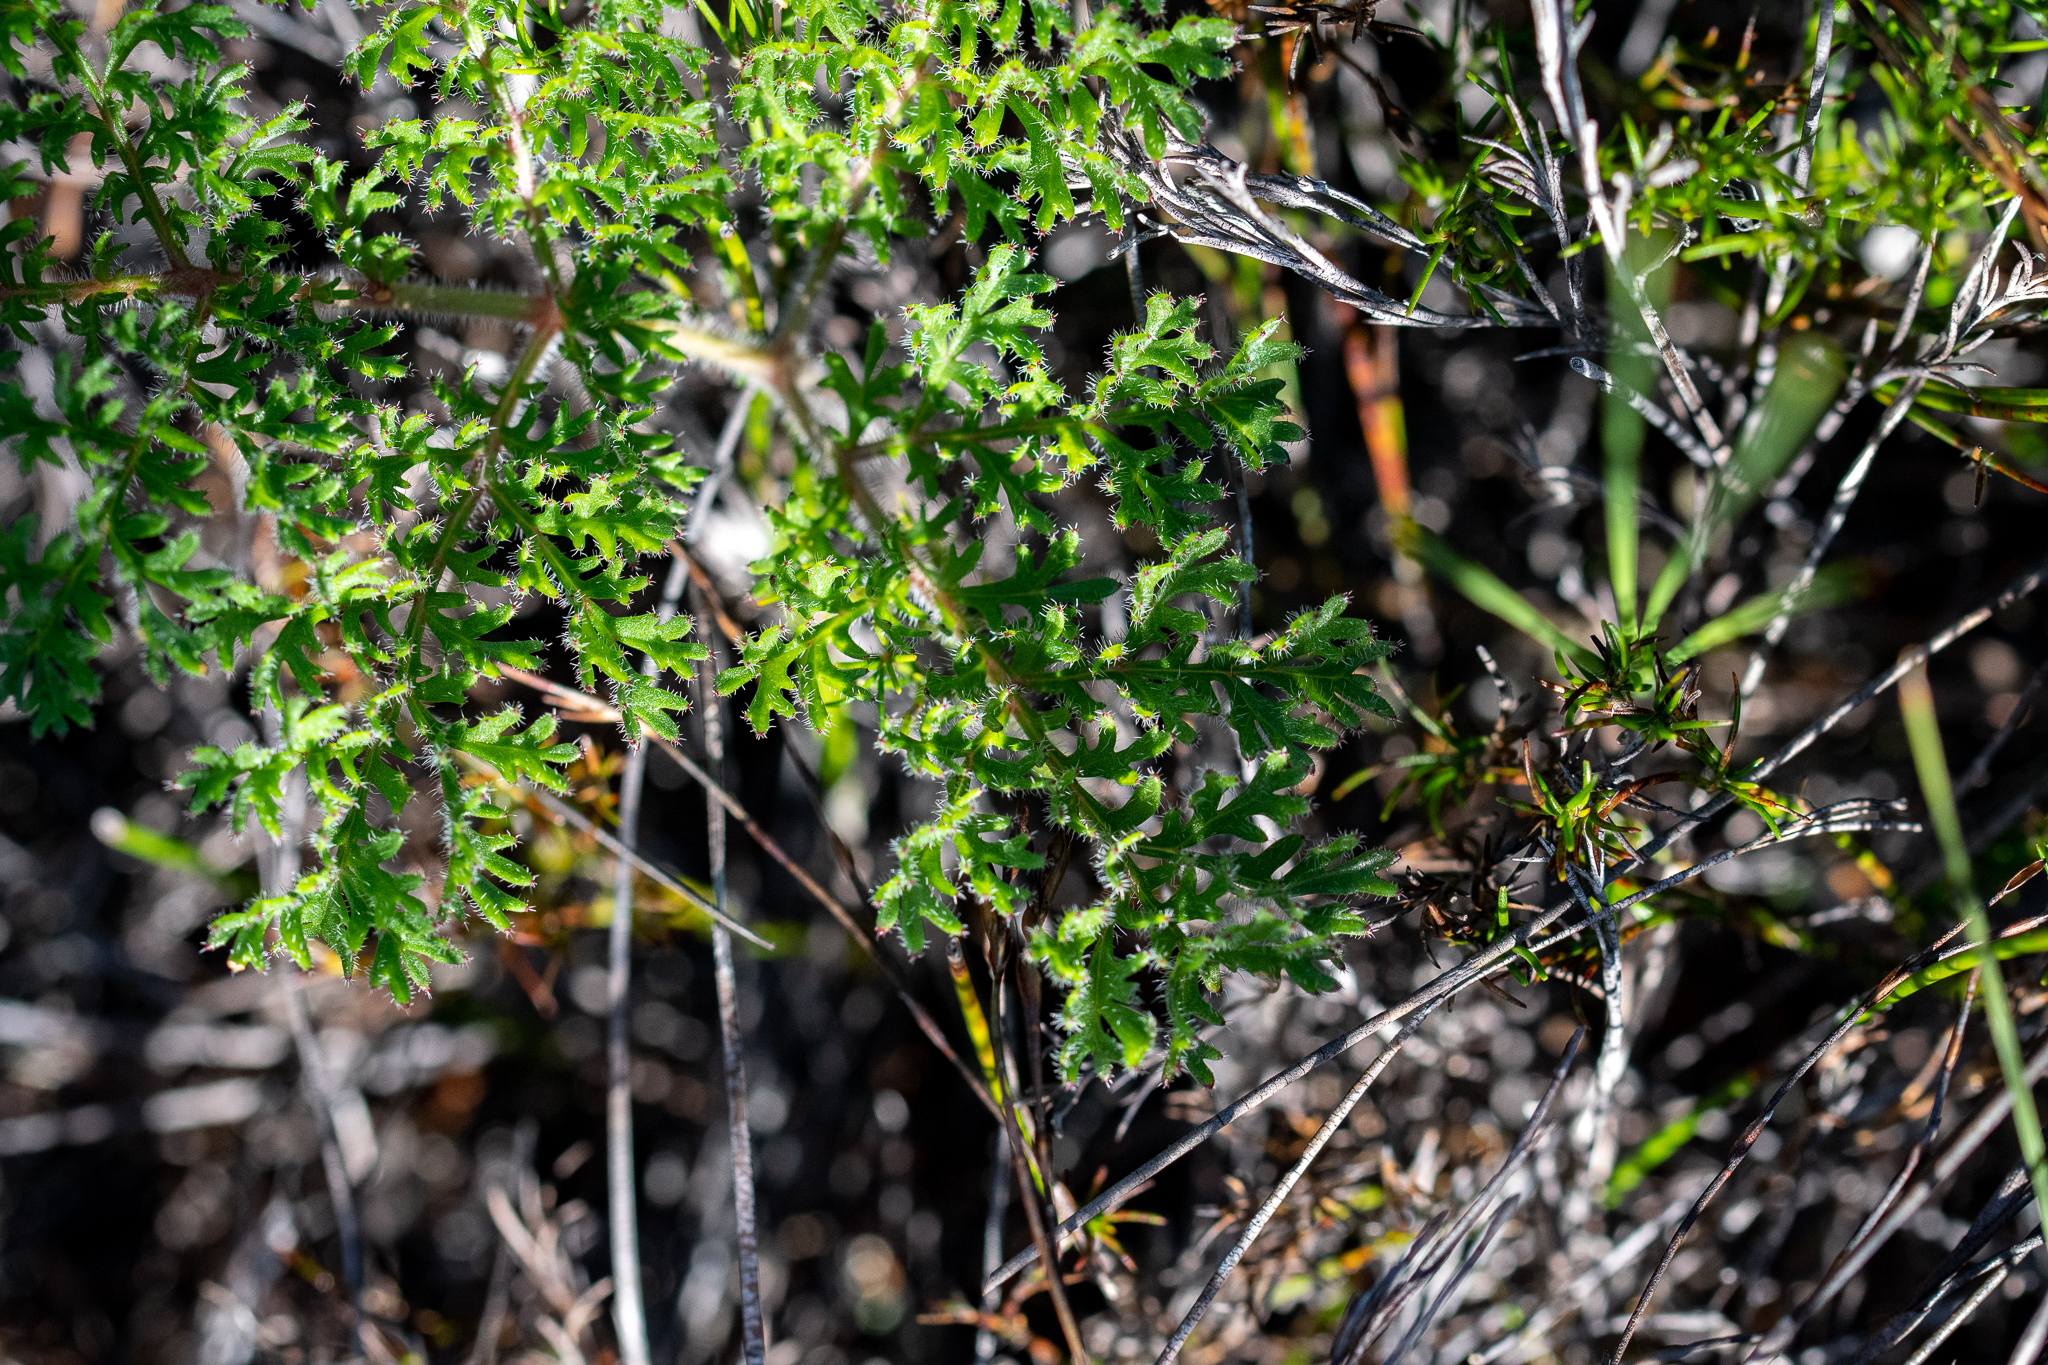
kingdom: Plantae
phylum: Tracheophyta
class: Magnoliopsida
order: Geraniales
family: Geraniaceae
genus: Pelargonium
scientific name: Pelargonium triste
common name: Night-scent pelargonium
